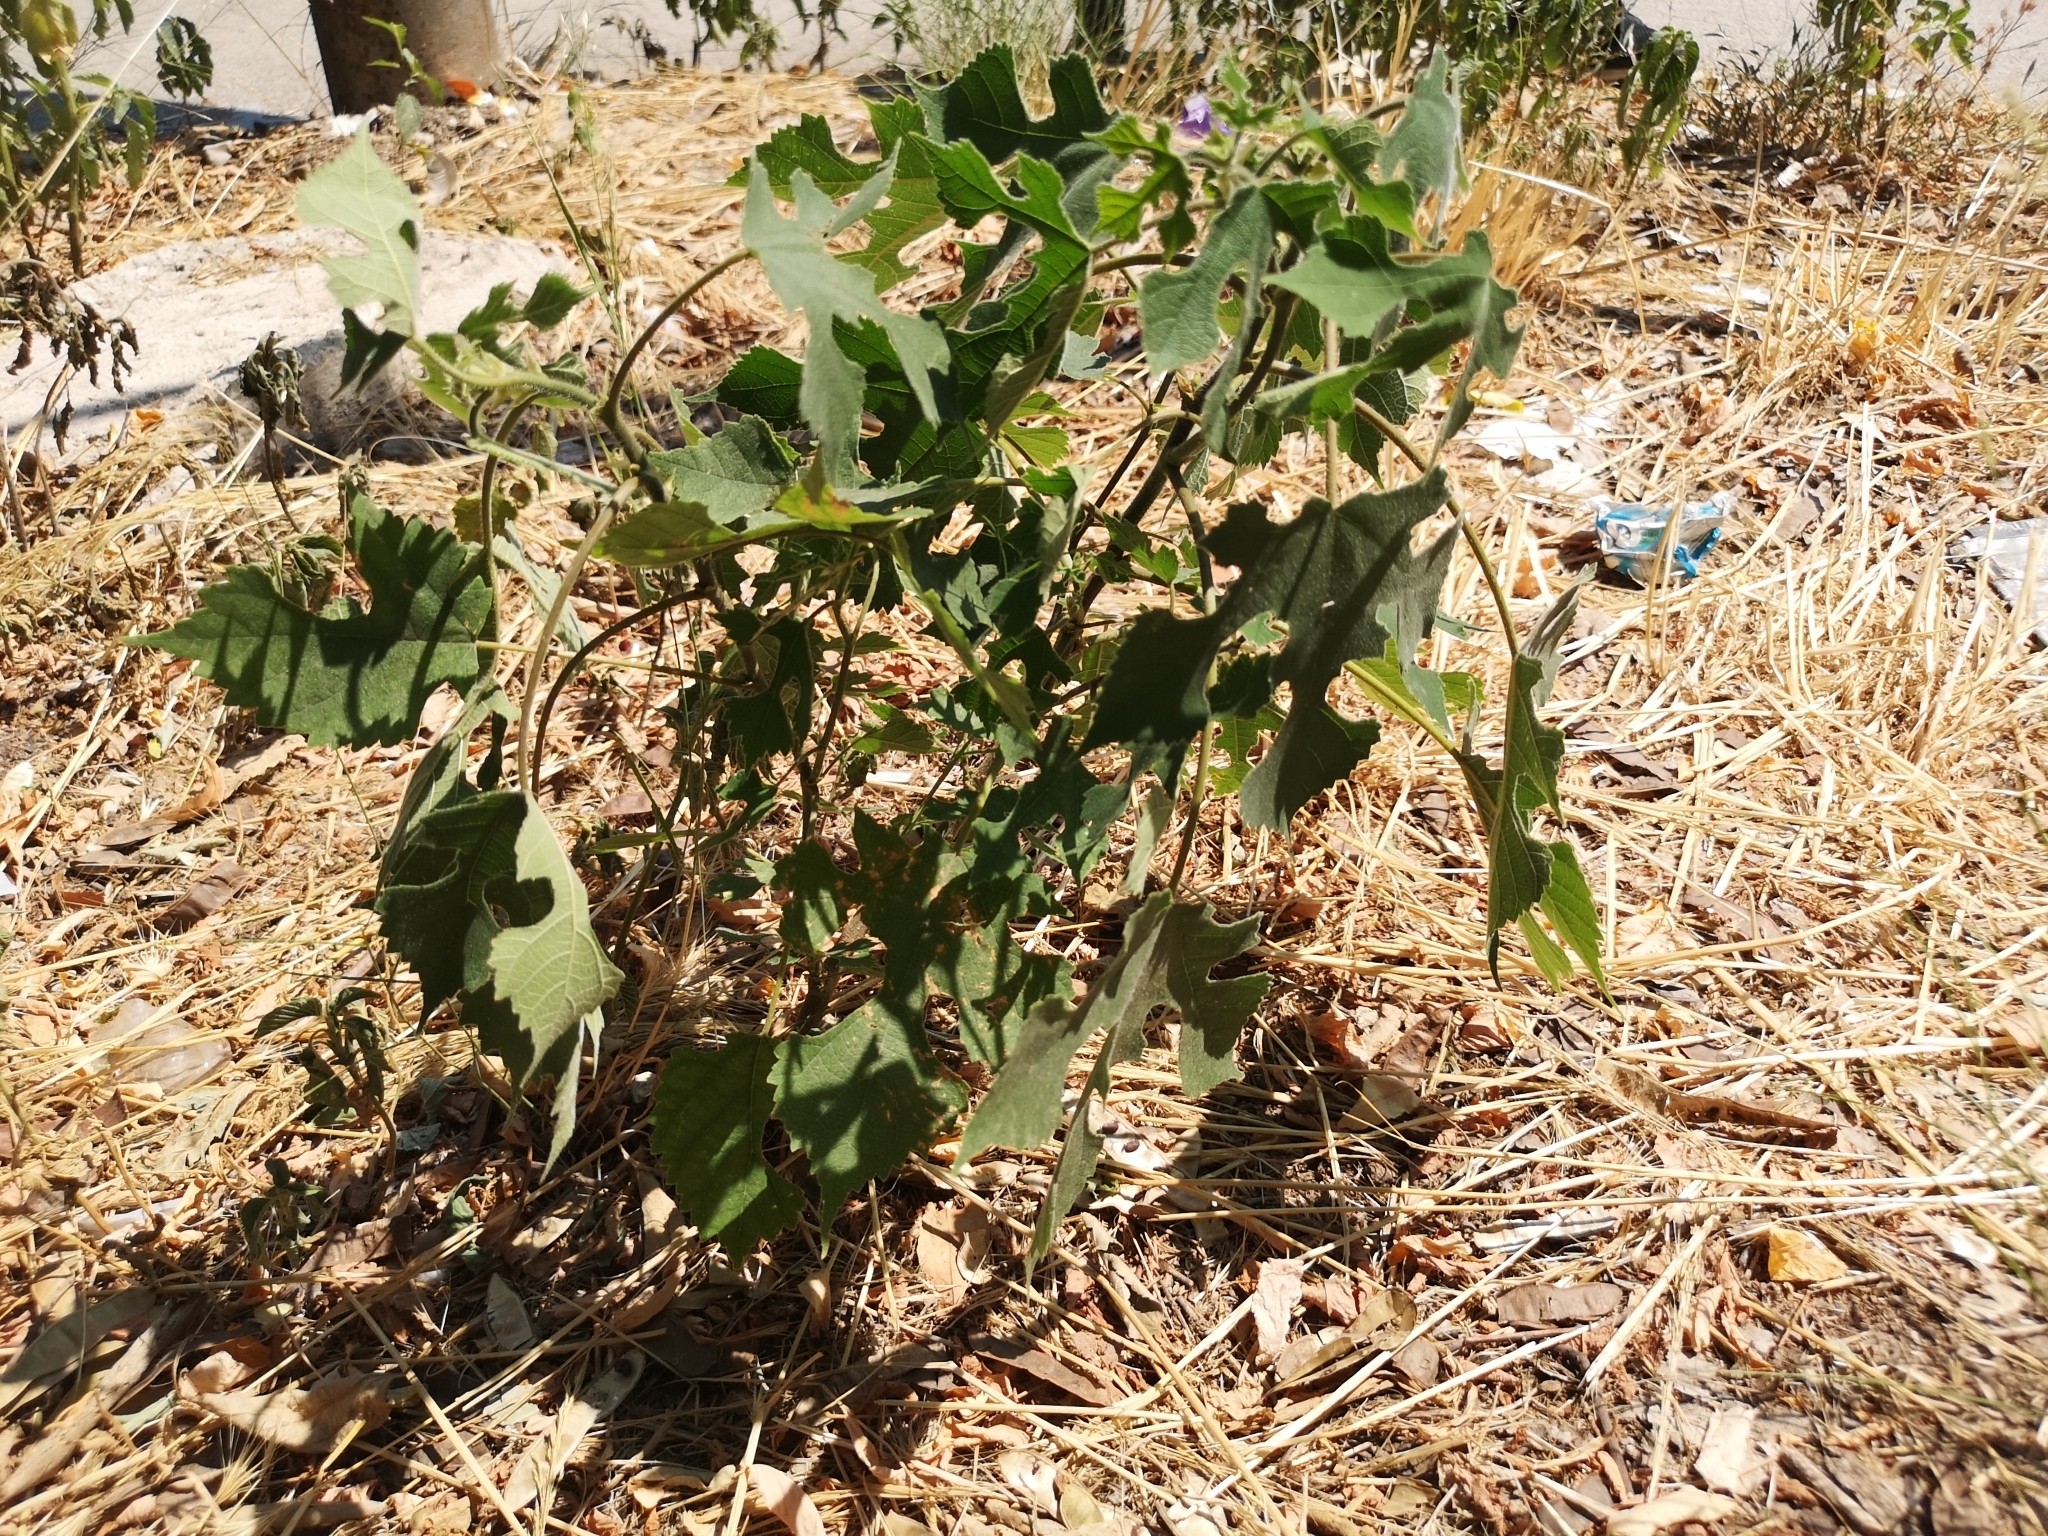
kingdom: Plantae
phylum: Tracheophyta
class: Magnoliopsida
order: Rosales
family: Moraceae
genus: Broussonetia
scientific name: Broussonetia papyrifera
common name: Paper mulberry
